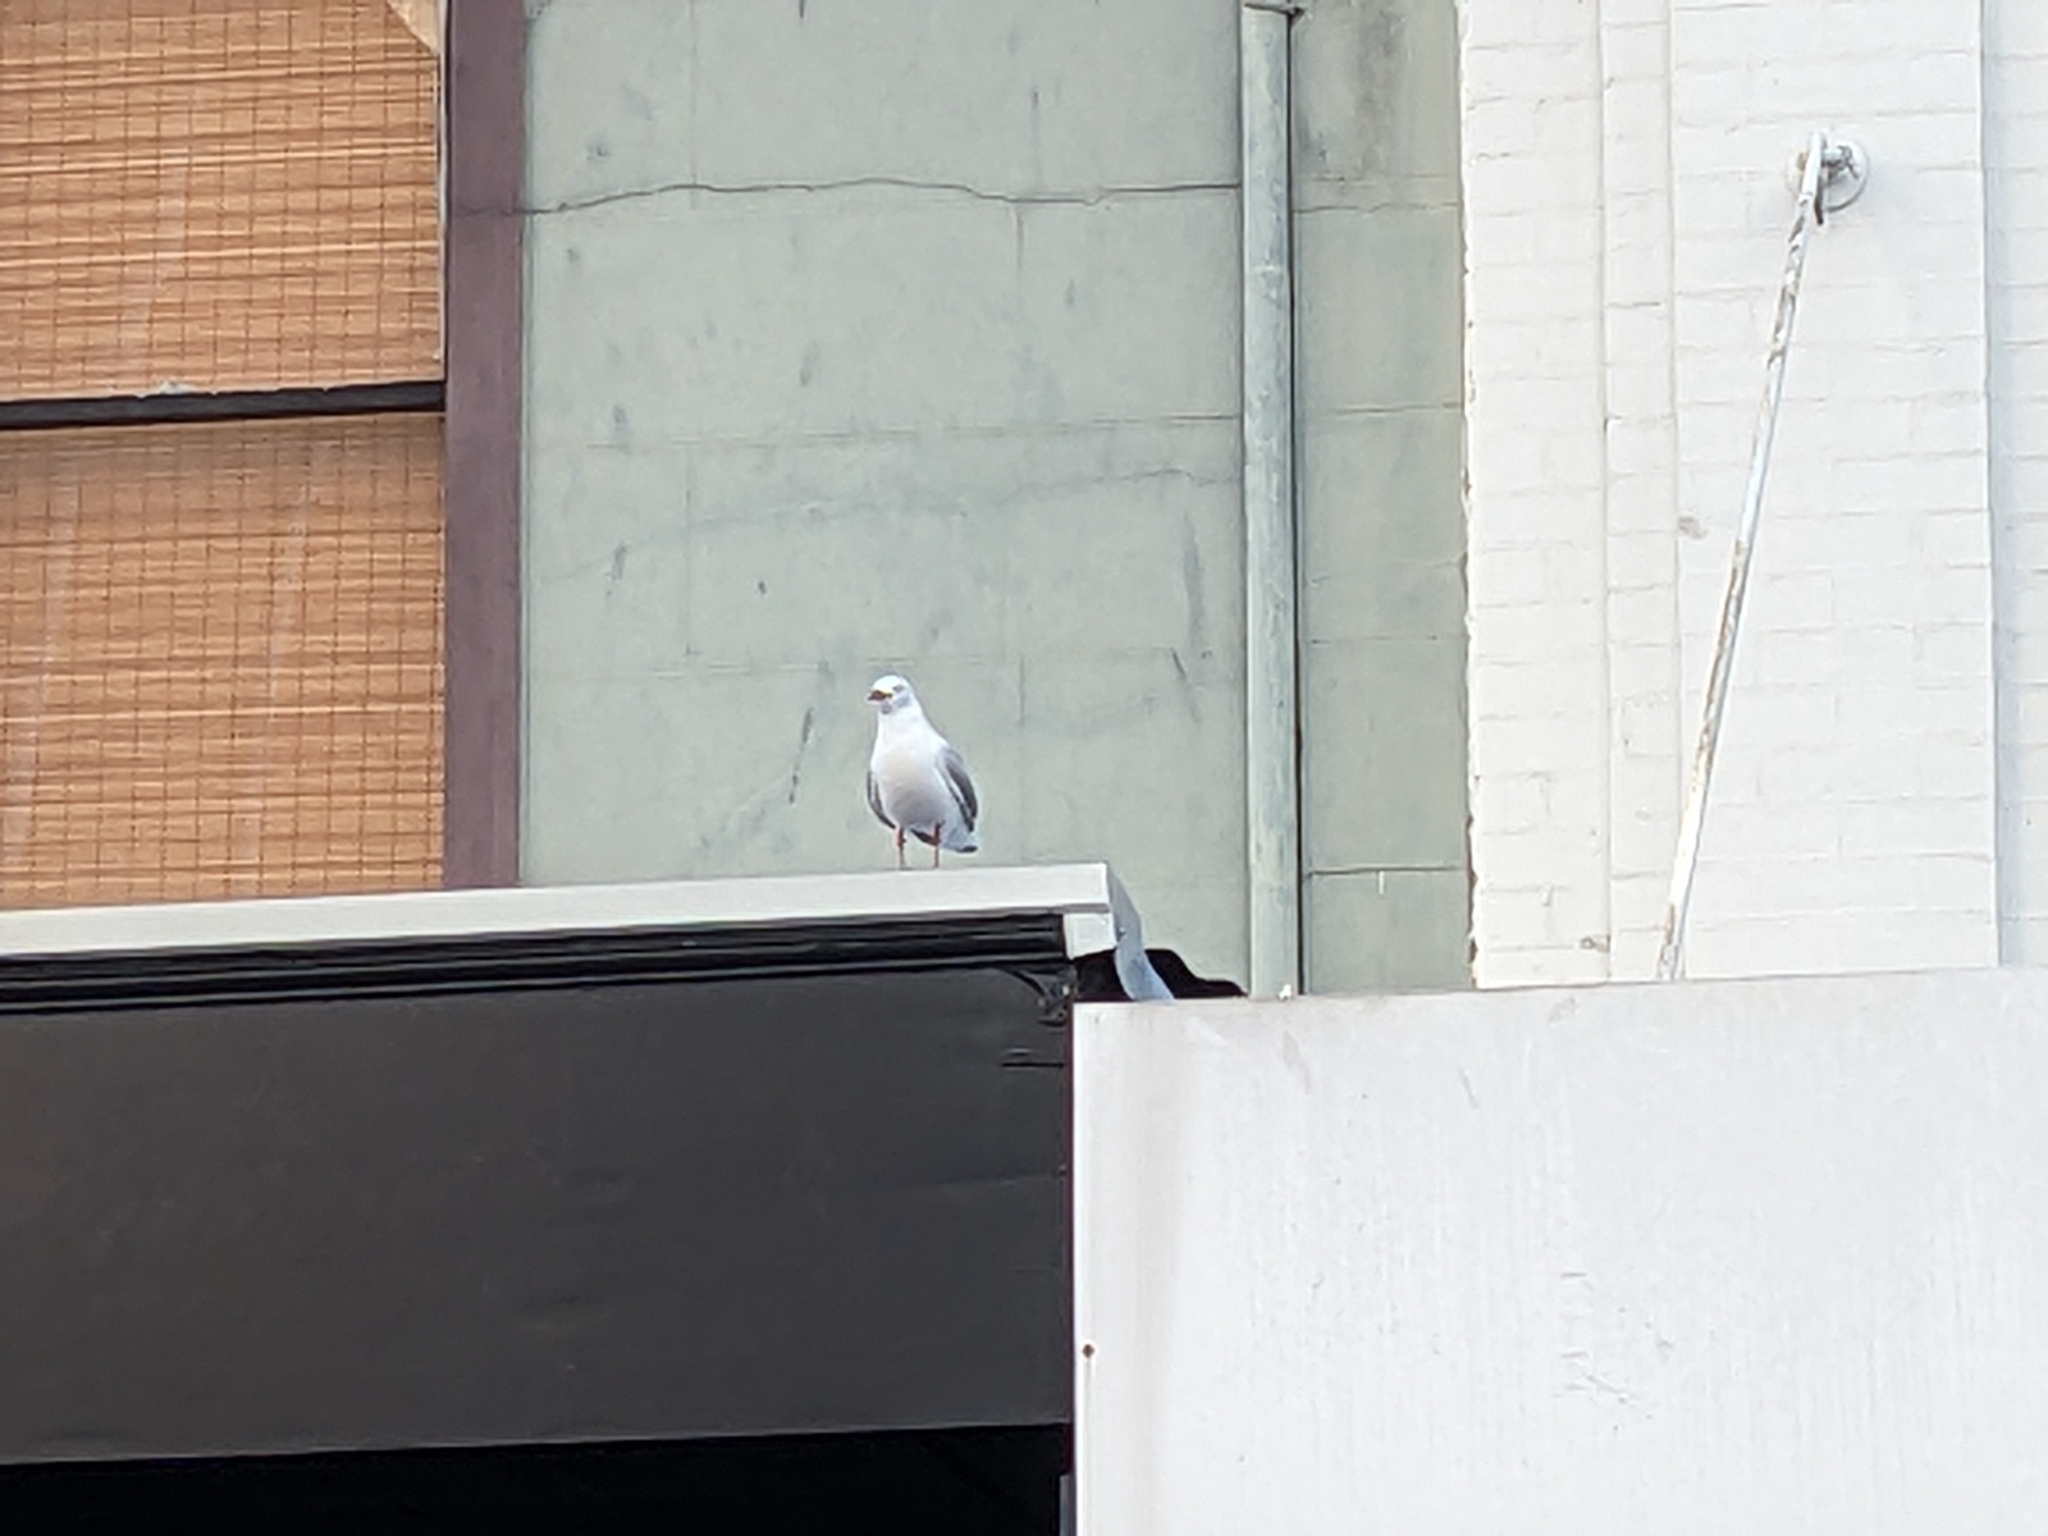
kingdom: Animalia
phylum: Chordata
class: Aves
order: Charadriiformes
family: Laridae
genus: Chroicocephalus
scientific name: Chroicocephalus novaehollandiae
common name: Silver gull
